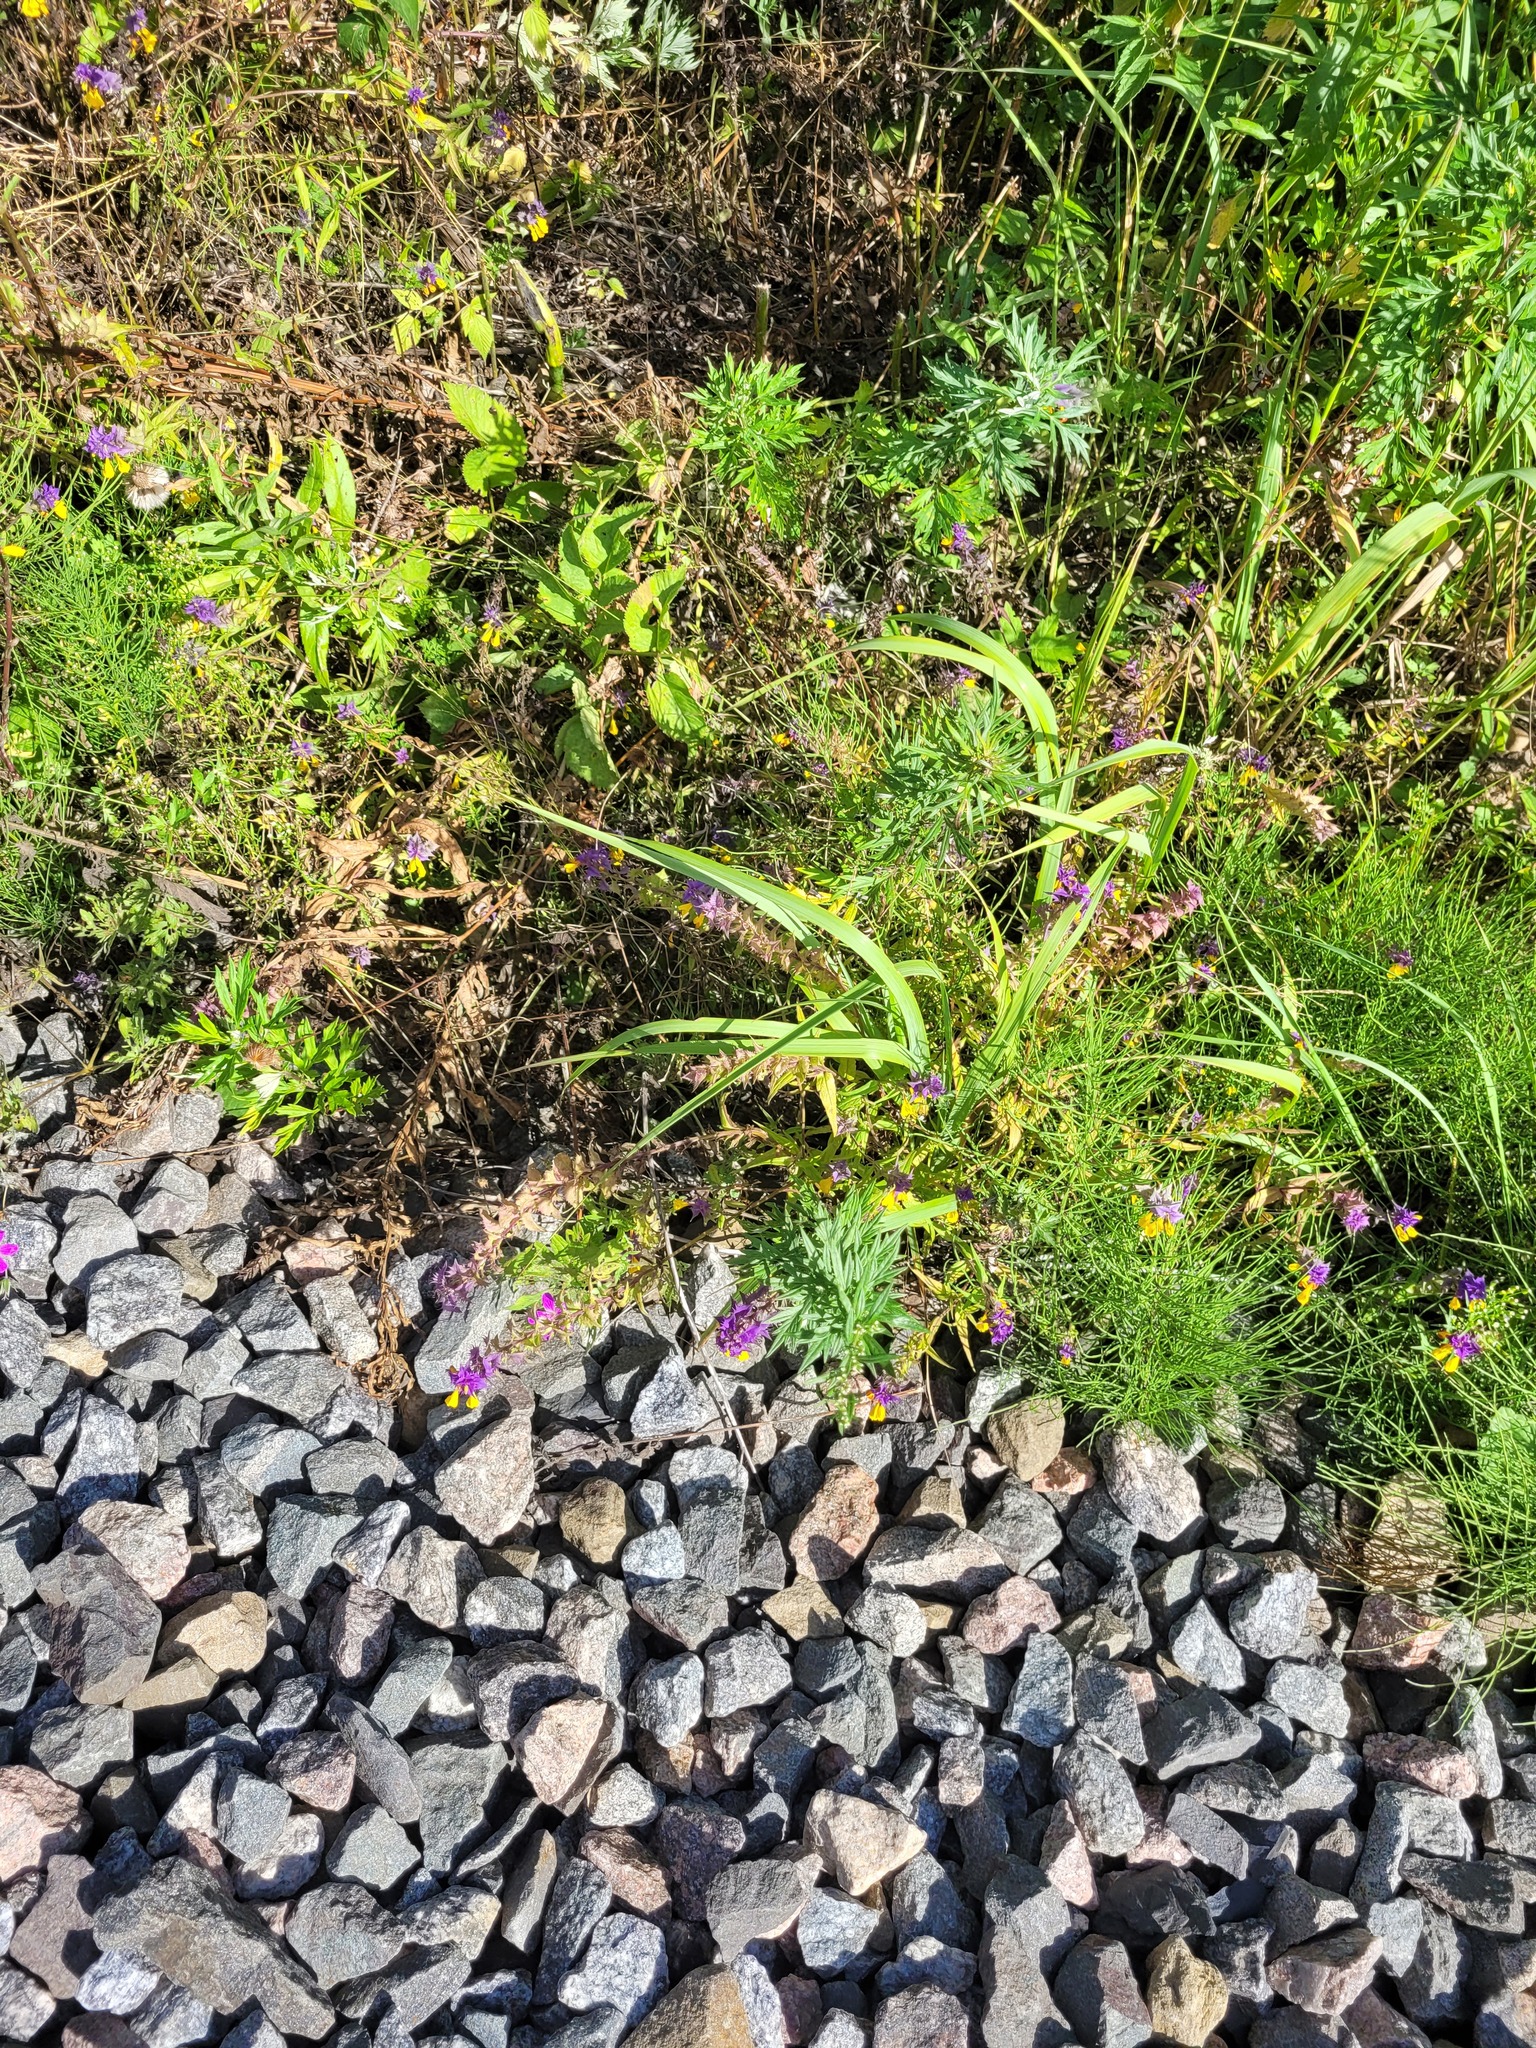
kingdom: Plantae
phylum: Tracheophyta
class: Magnoliopsida
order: Lamiales
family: Orobanchaceae
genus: Melampyrum
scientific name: Melampyrum nemorosum
